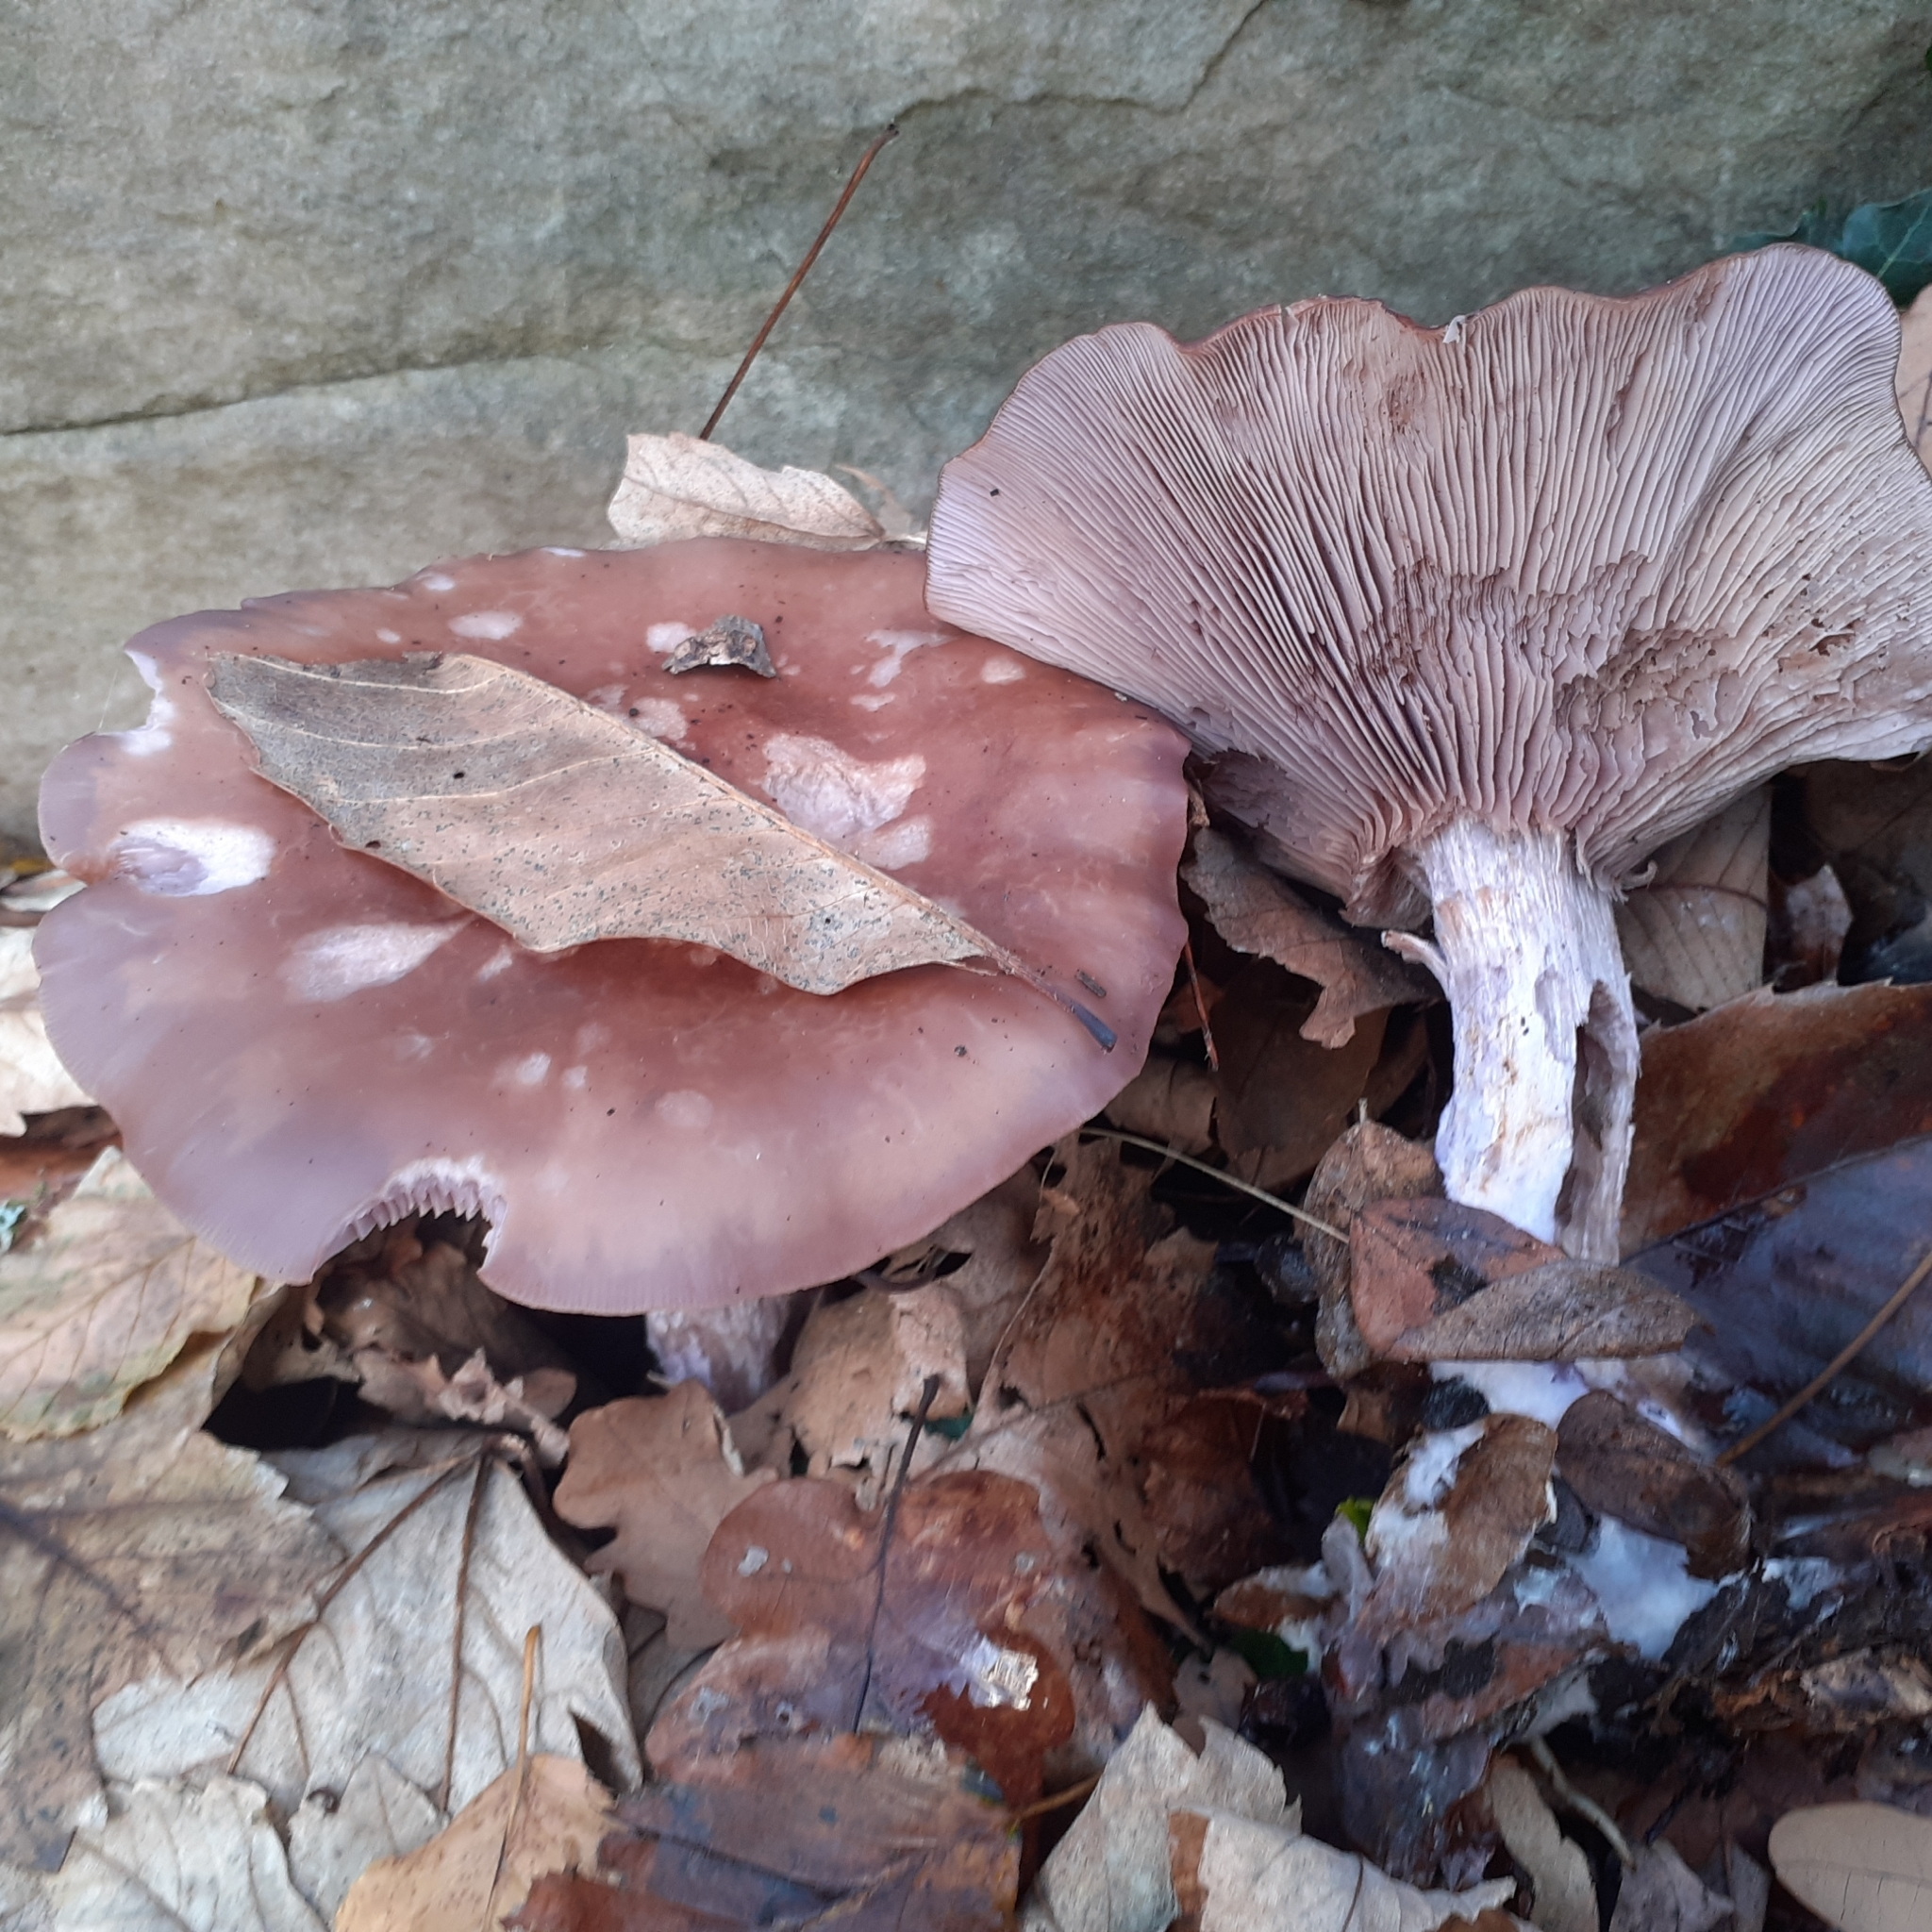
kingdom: Fungi
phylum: Basidiomycota
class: Agaricomycetes
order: Agaricales
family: Tricholomataceae
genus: Collybia
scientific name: Collybia
